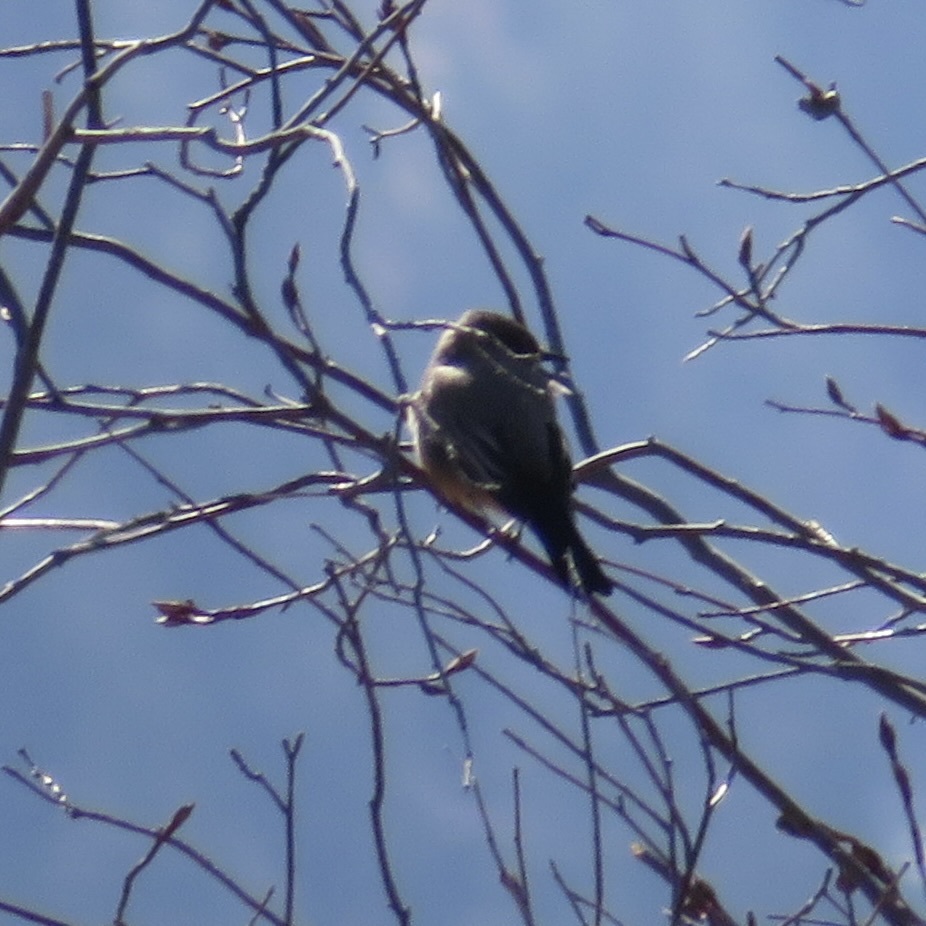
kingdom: Animalia
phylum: Chordata
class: Aves
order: Passeriformes
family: Tyrannidae
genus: Sayornis
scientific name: Sayornis saya
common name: Say's phoebe
